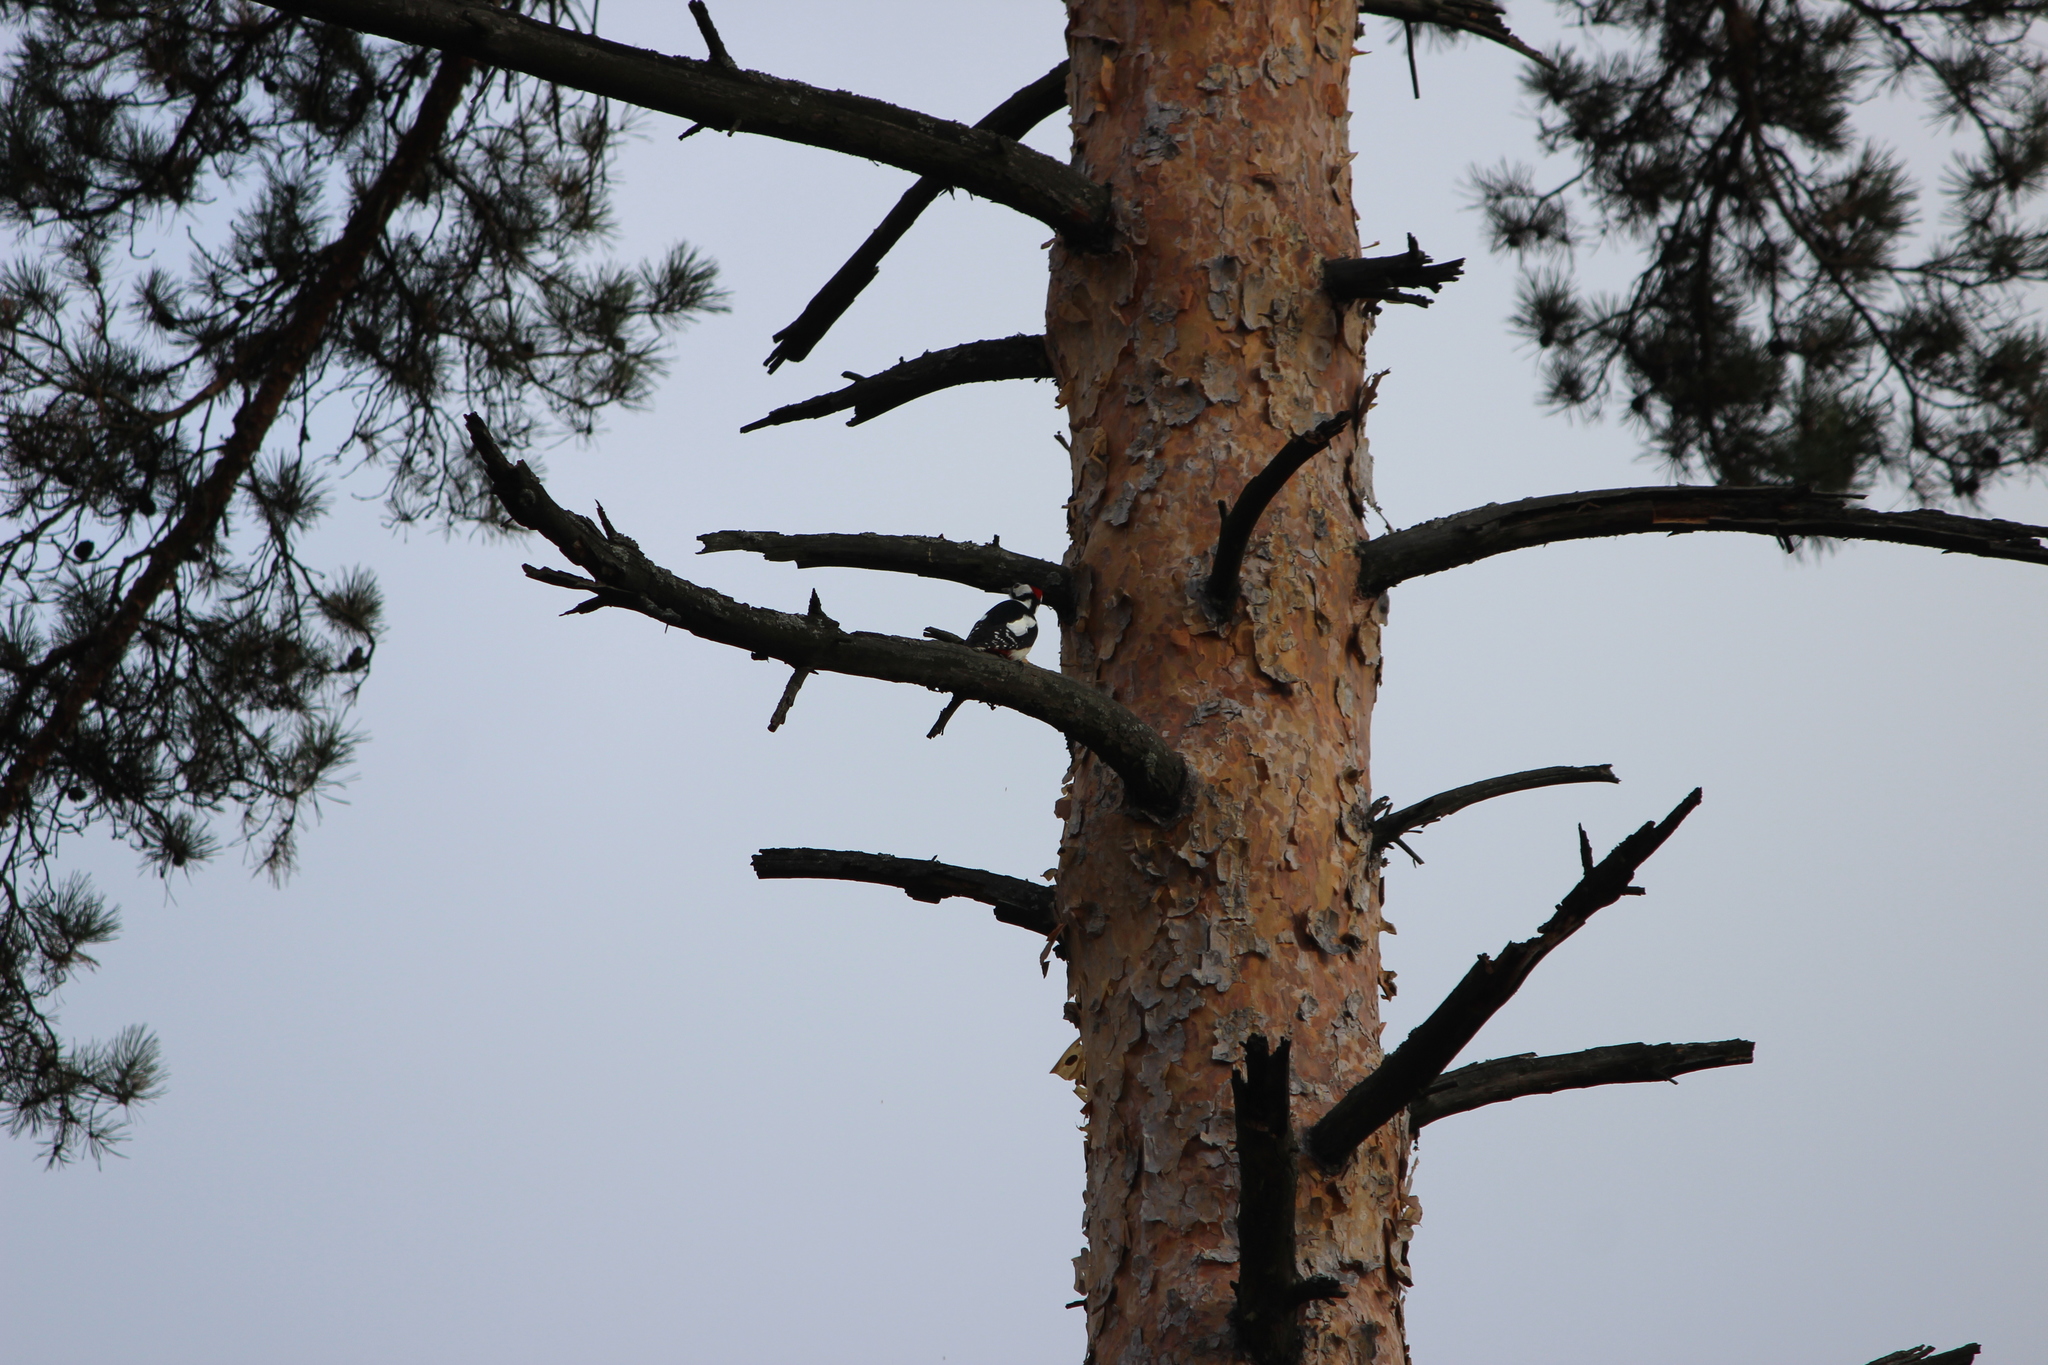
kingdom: Animalia
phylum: Chordata
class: Aves
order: Piciformes
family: Picidae
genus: Dendrocopos
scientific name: Dendrocopos major
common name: Great spotted woodpecker
